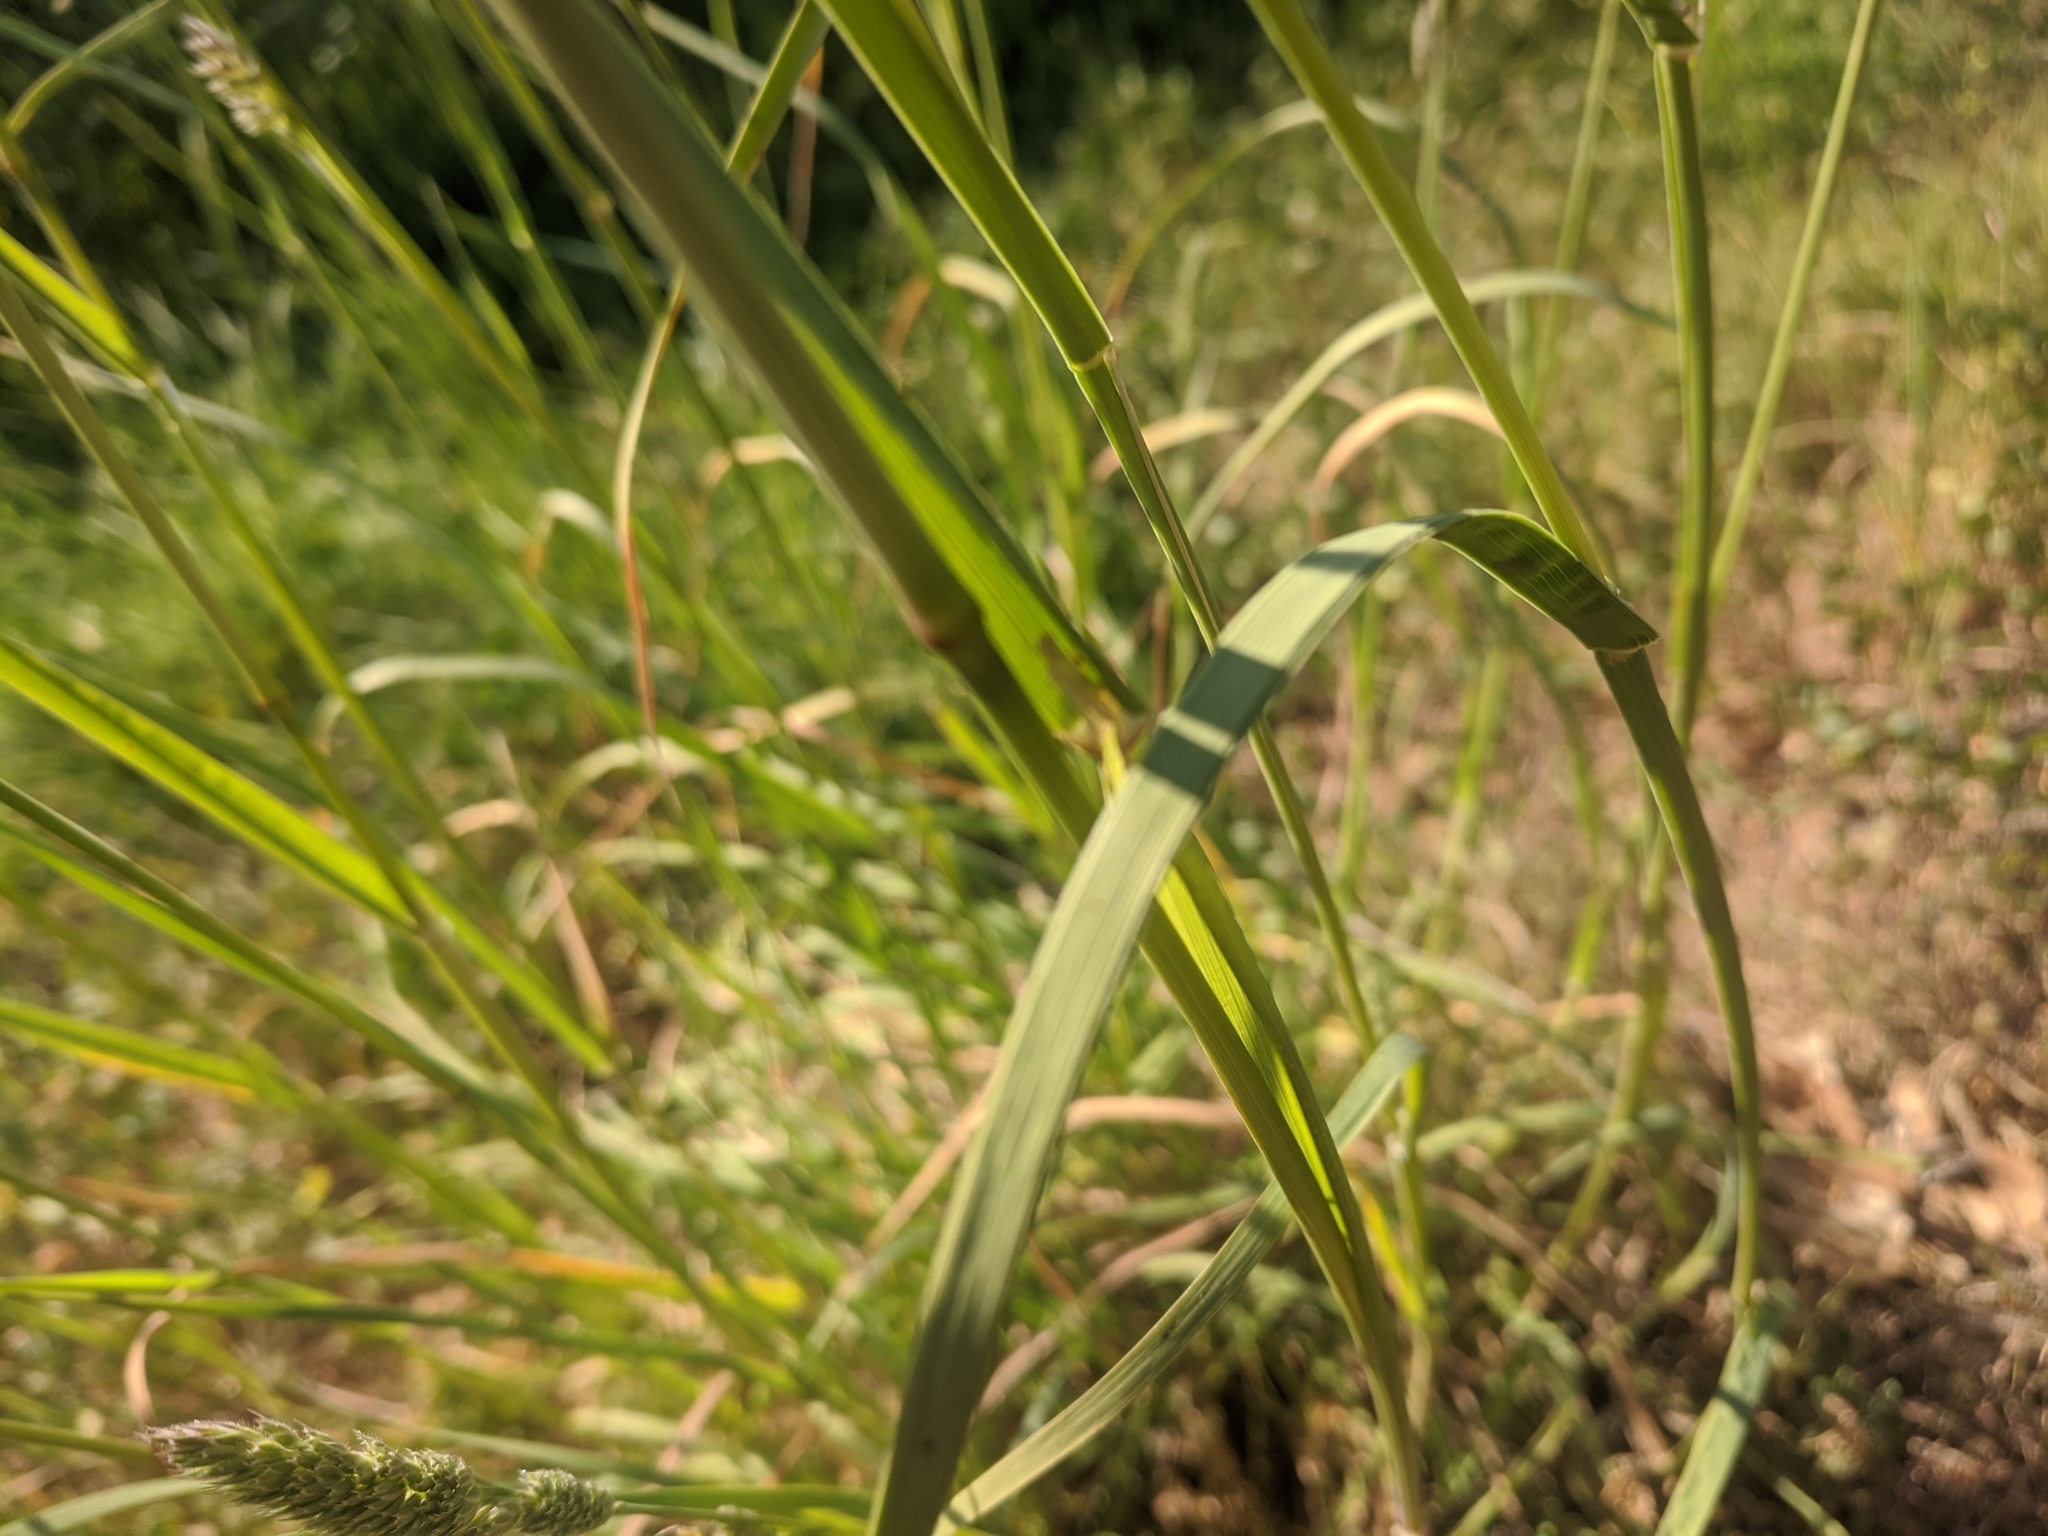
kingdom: Plantae
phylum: Tracheophyta
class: Liliopsida
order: Poales
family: Poaceae
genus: Dactylis
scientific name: Dactylis glomerata
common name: Orchardgrass
